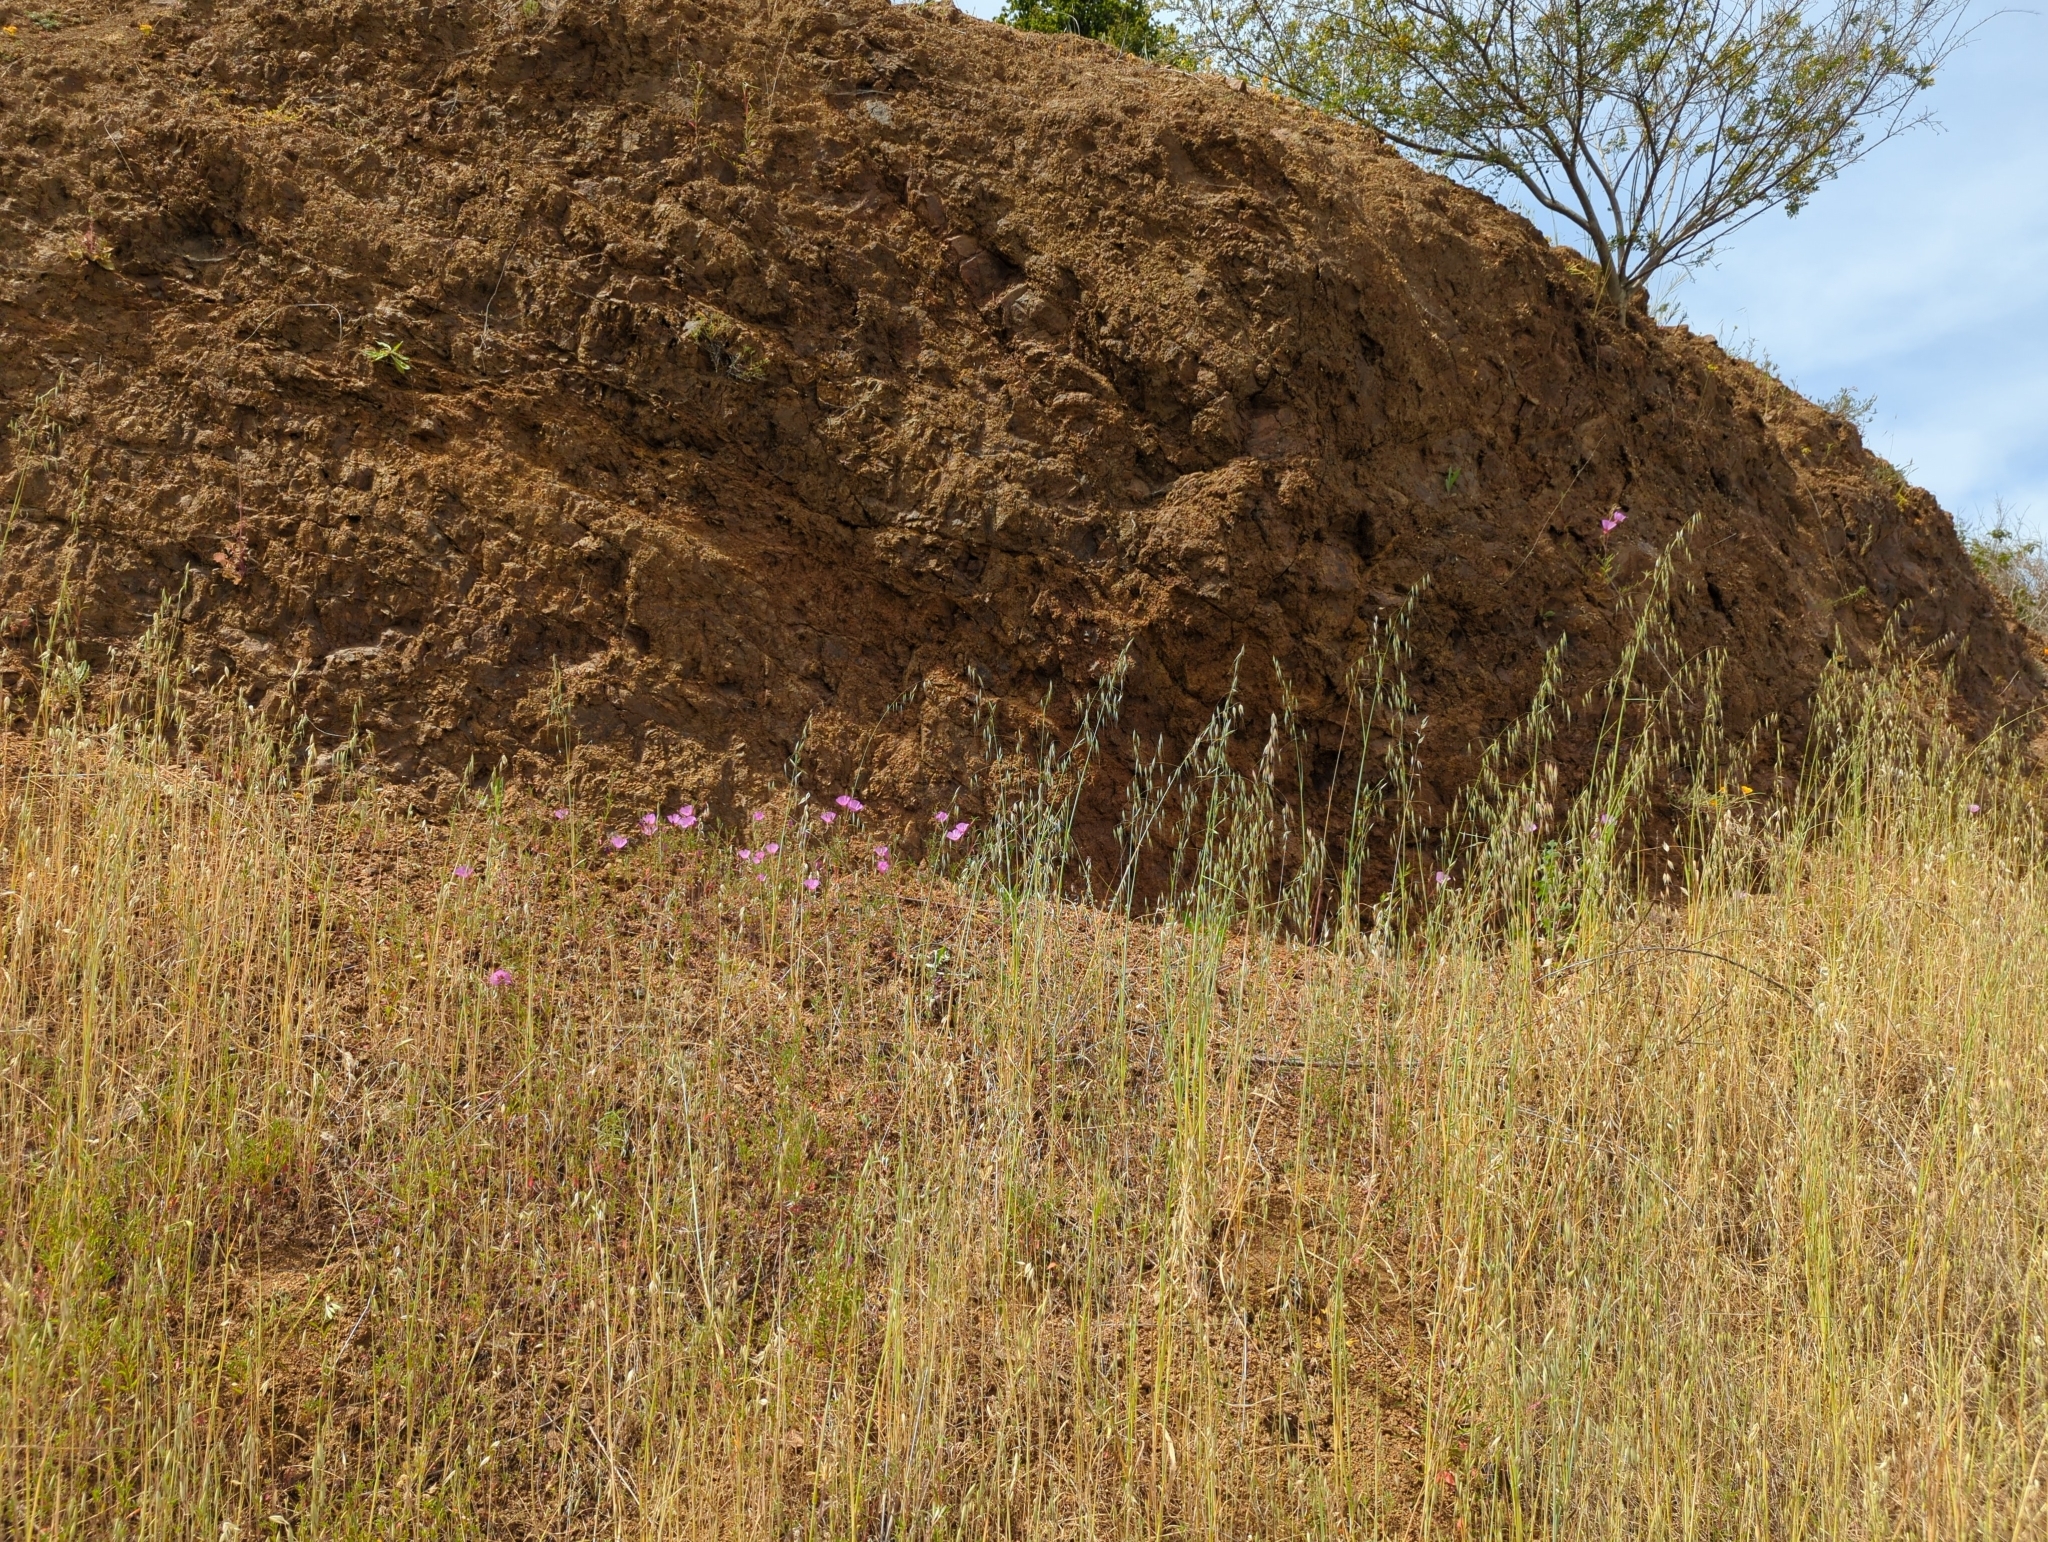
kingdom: Plantae
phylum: Tracheophyta
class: Magnoliopsida
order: Myrtales
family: Onagraceae
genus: Clarkia
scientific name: Clarkia rubicunda
